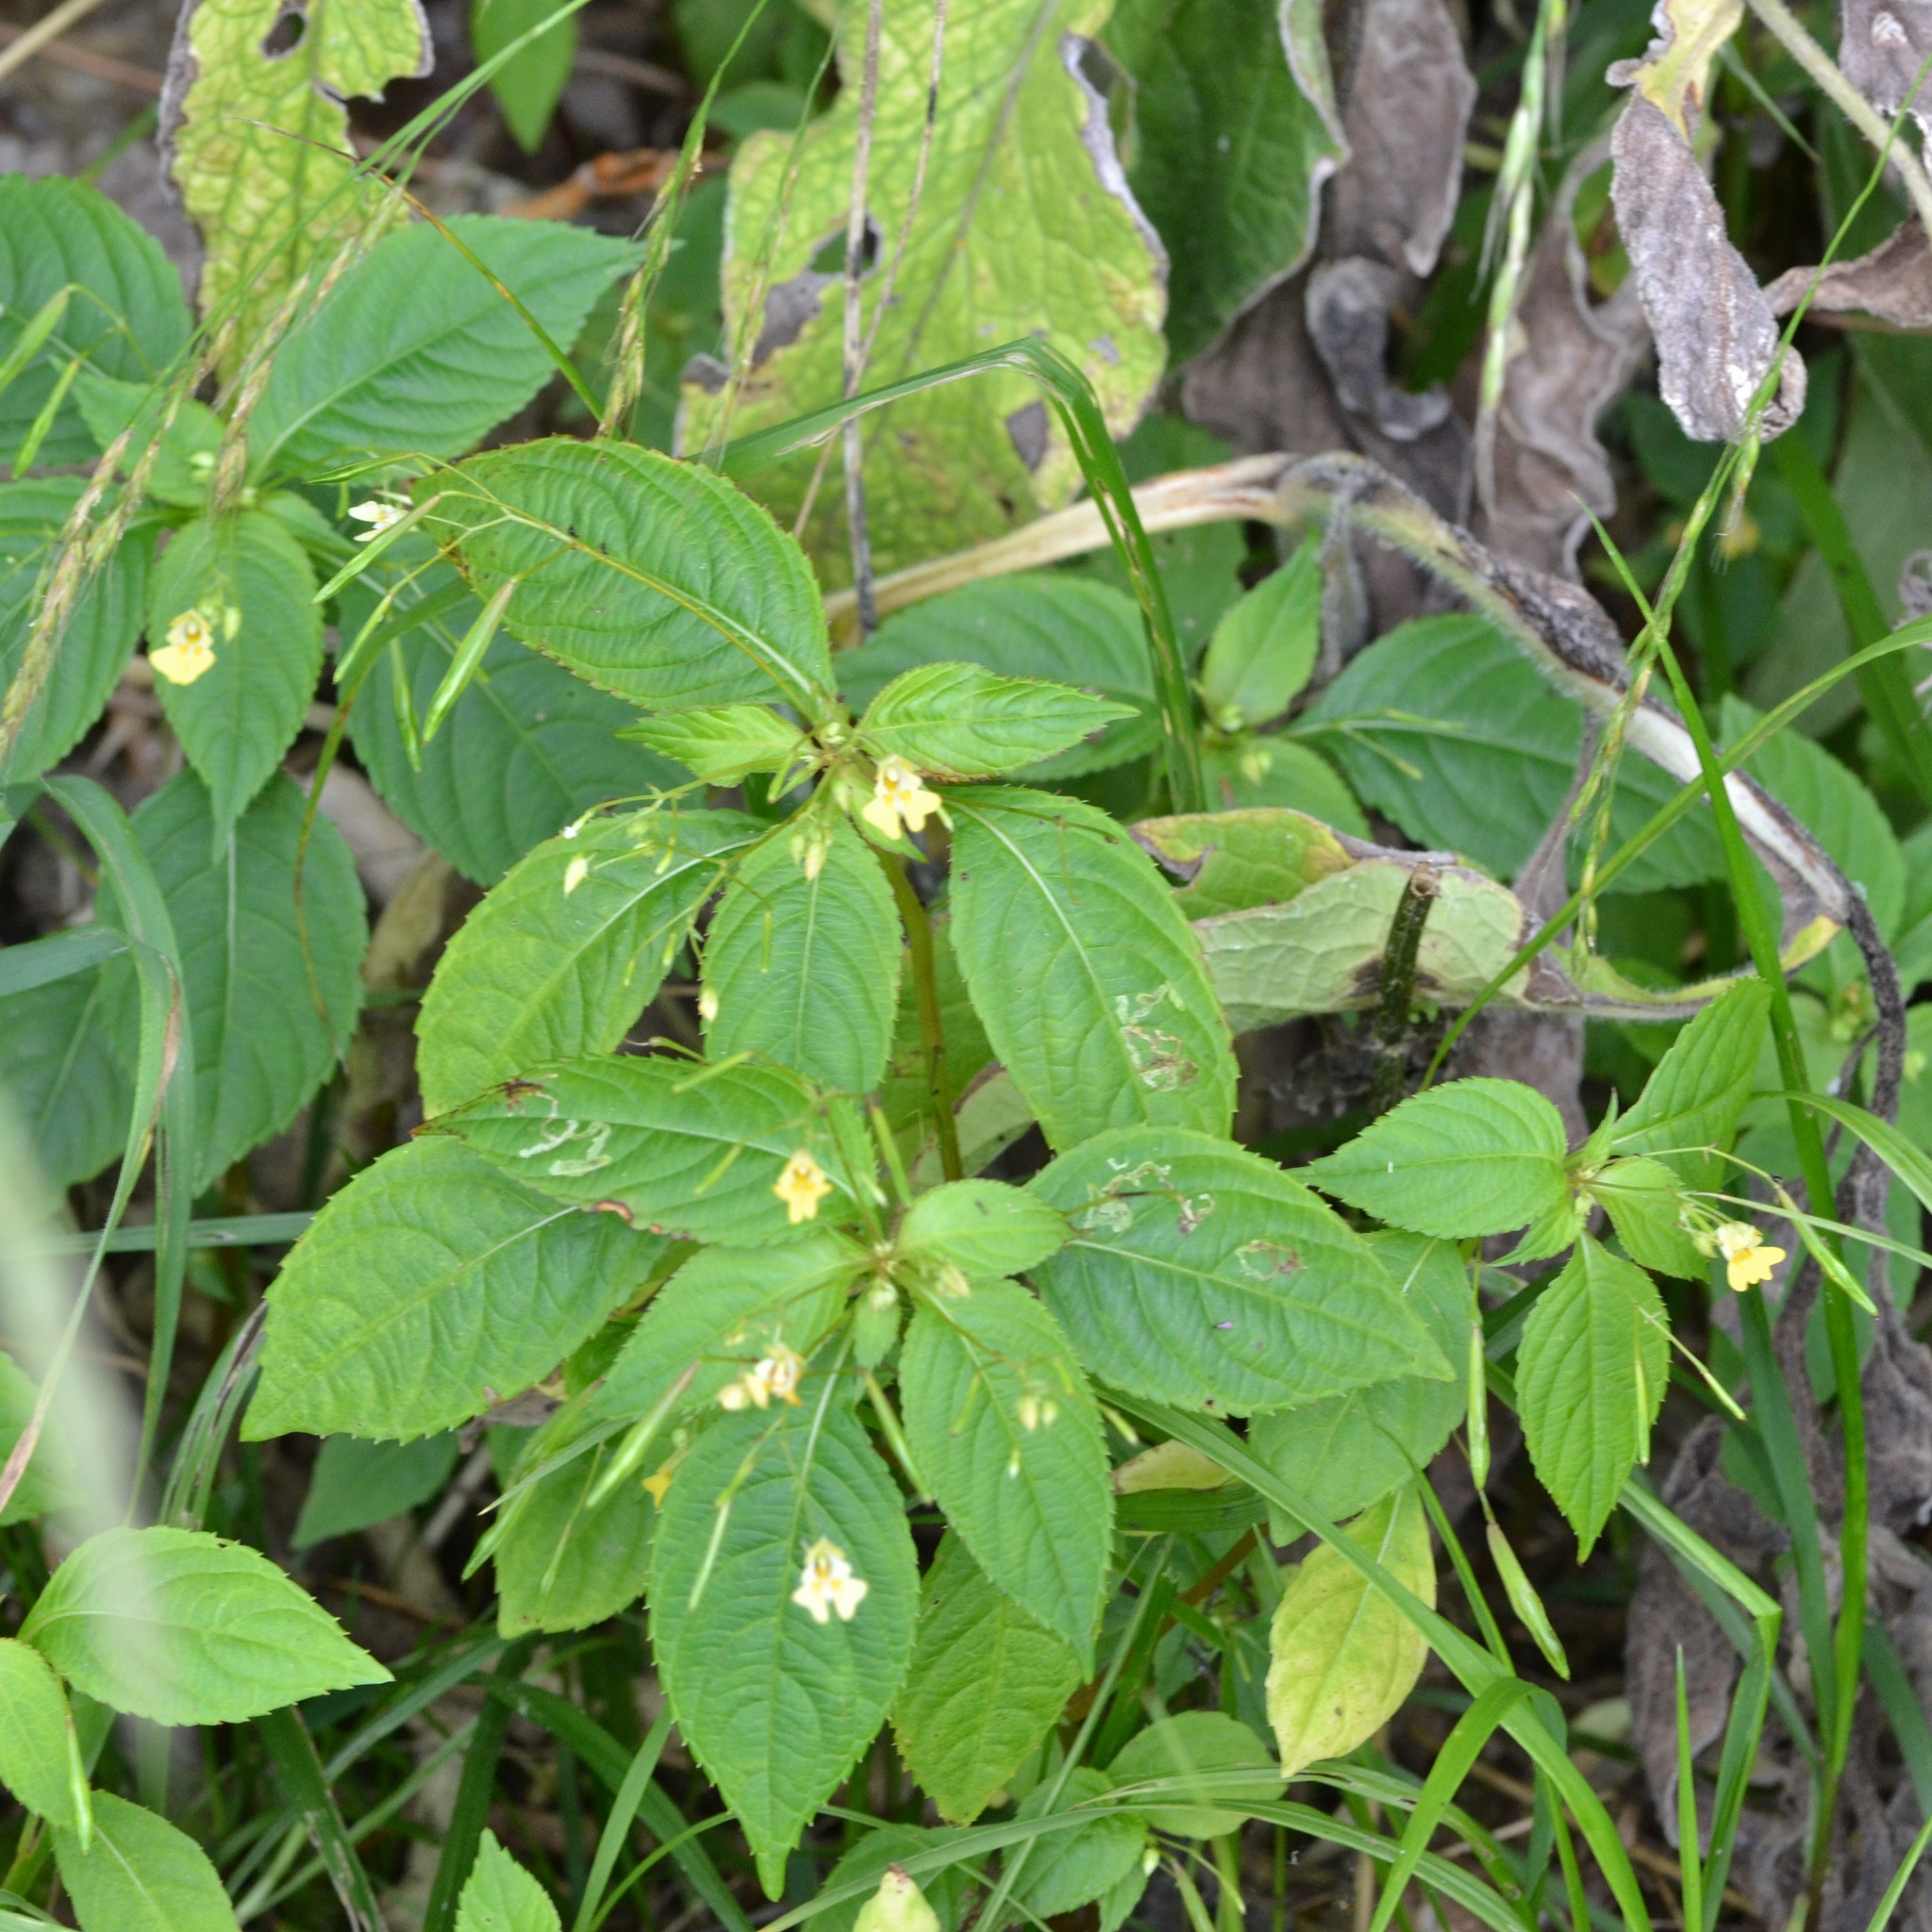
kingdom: Plantae
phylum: Tracheophyta
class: Magnoliopsida
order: Ericales
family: Balsaminaceae
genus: Impatiens
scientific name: Impatiens parviflora
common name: Small balsam
